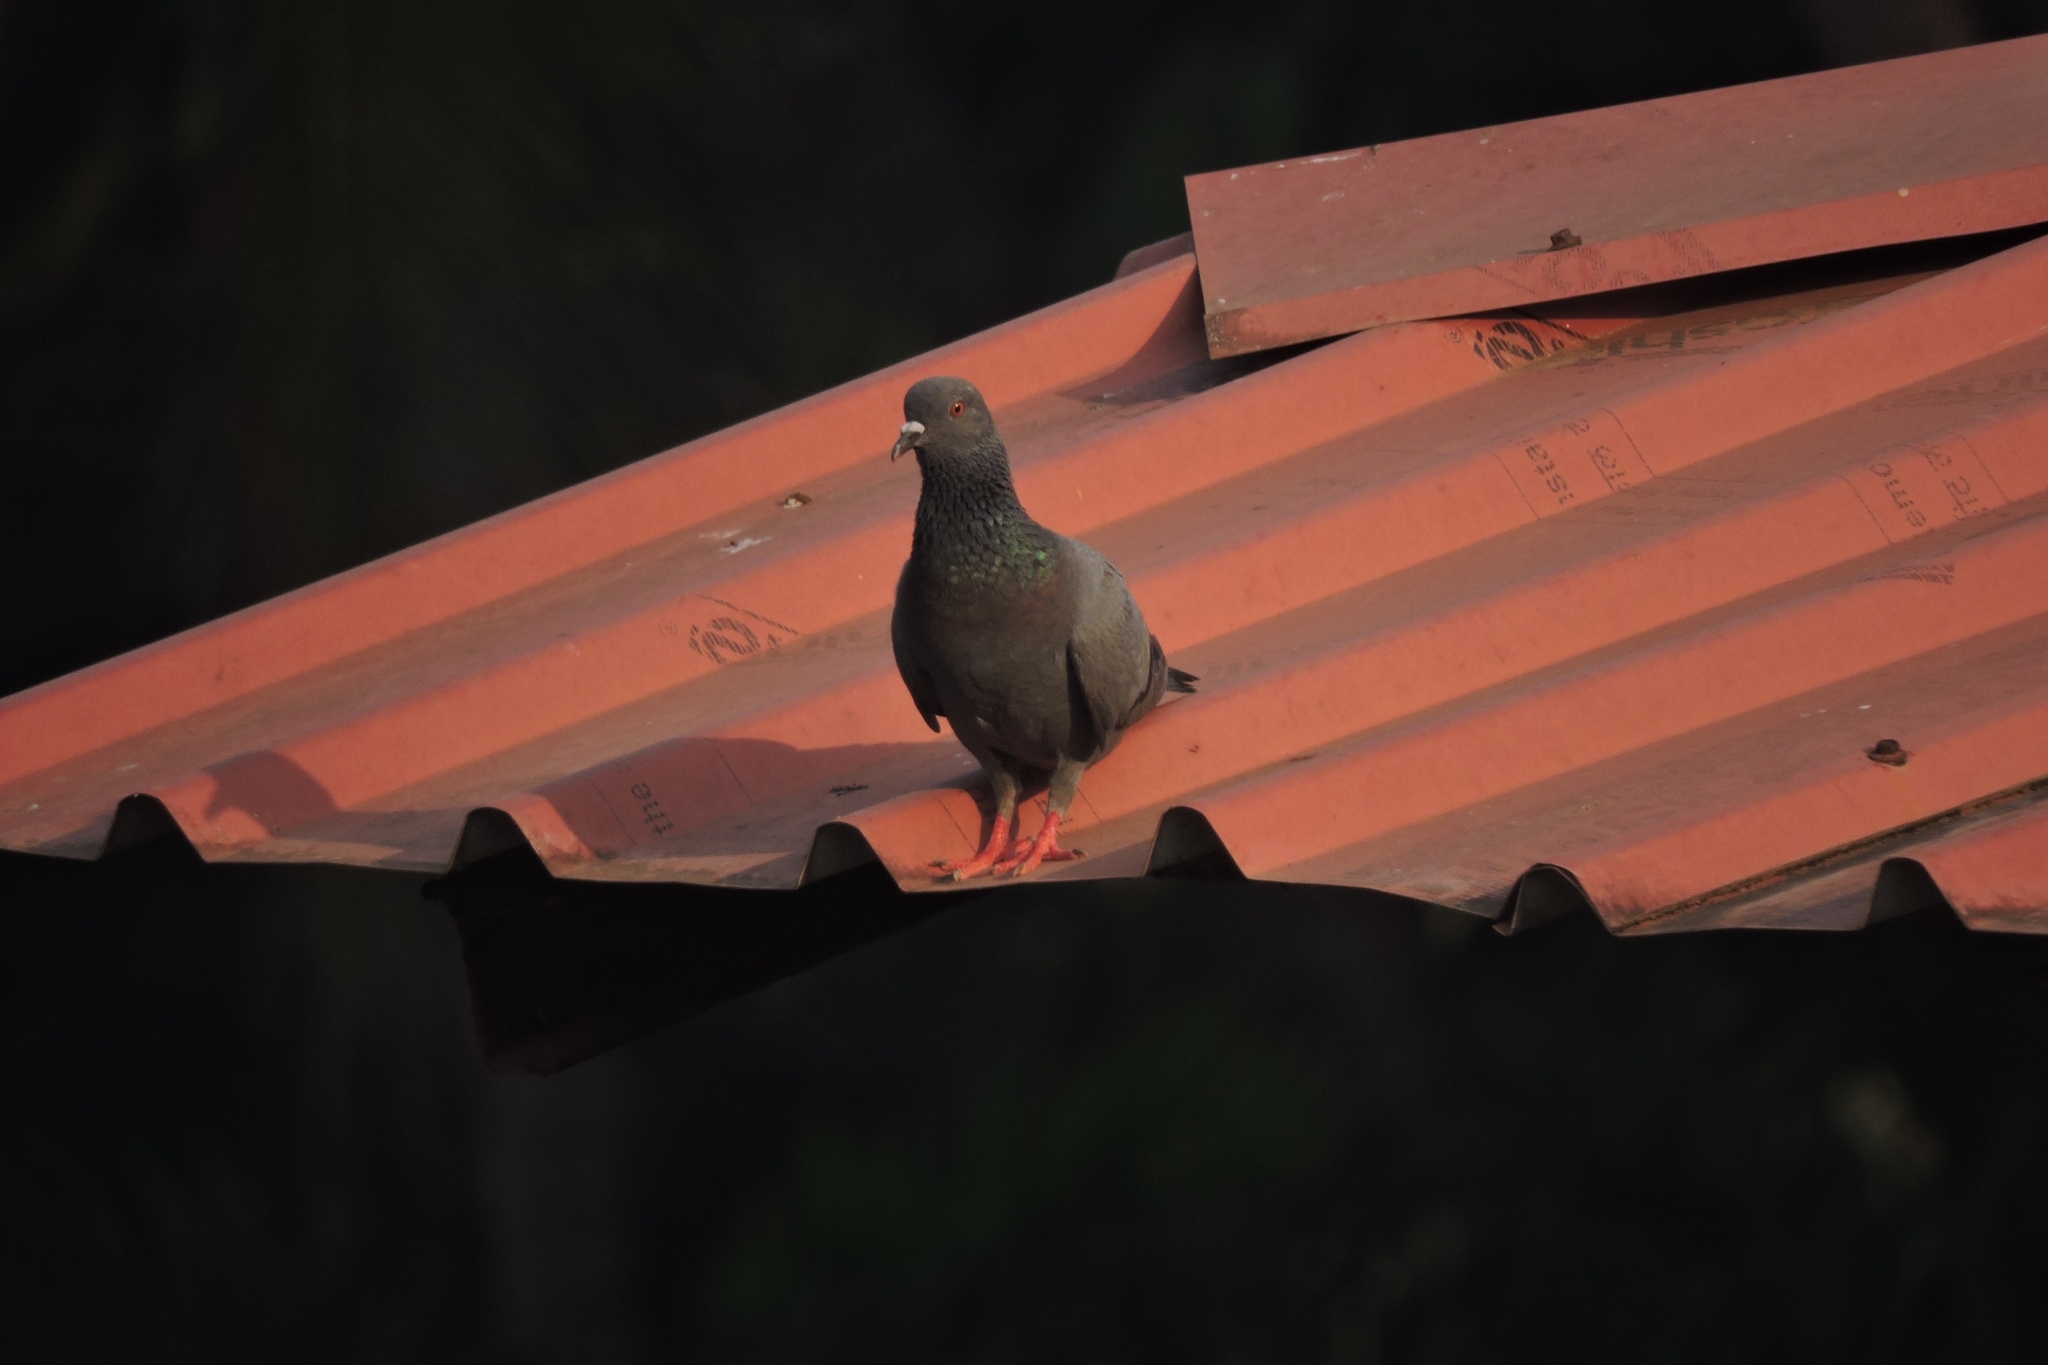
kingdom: Animalia
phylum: Chordata
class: Aves
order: Columbiformes
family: Columbidae
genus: Columba
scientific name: Columba livia
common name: Rock pigeon
